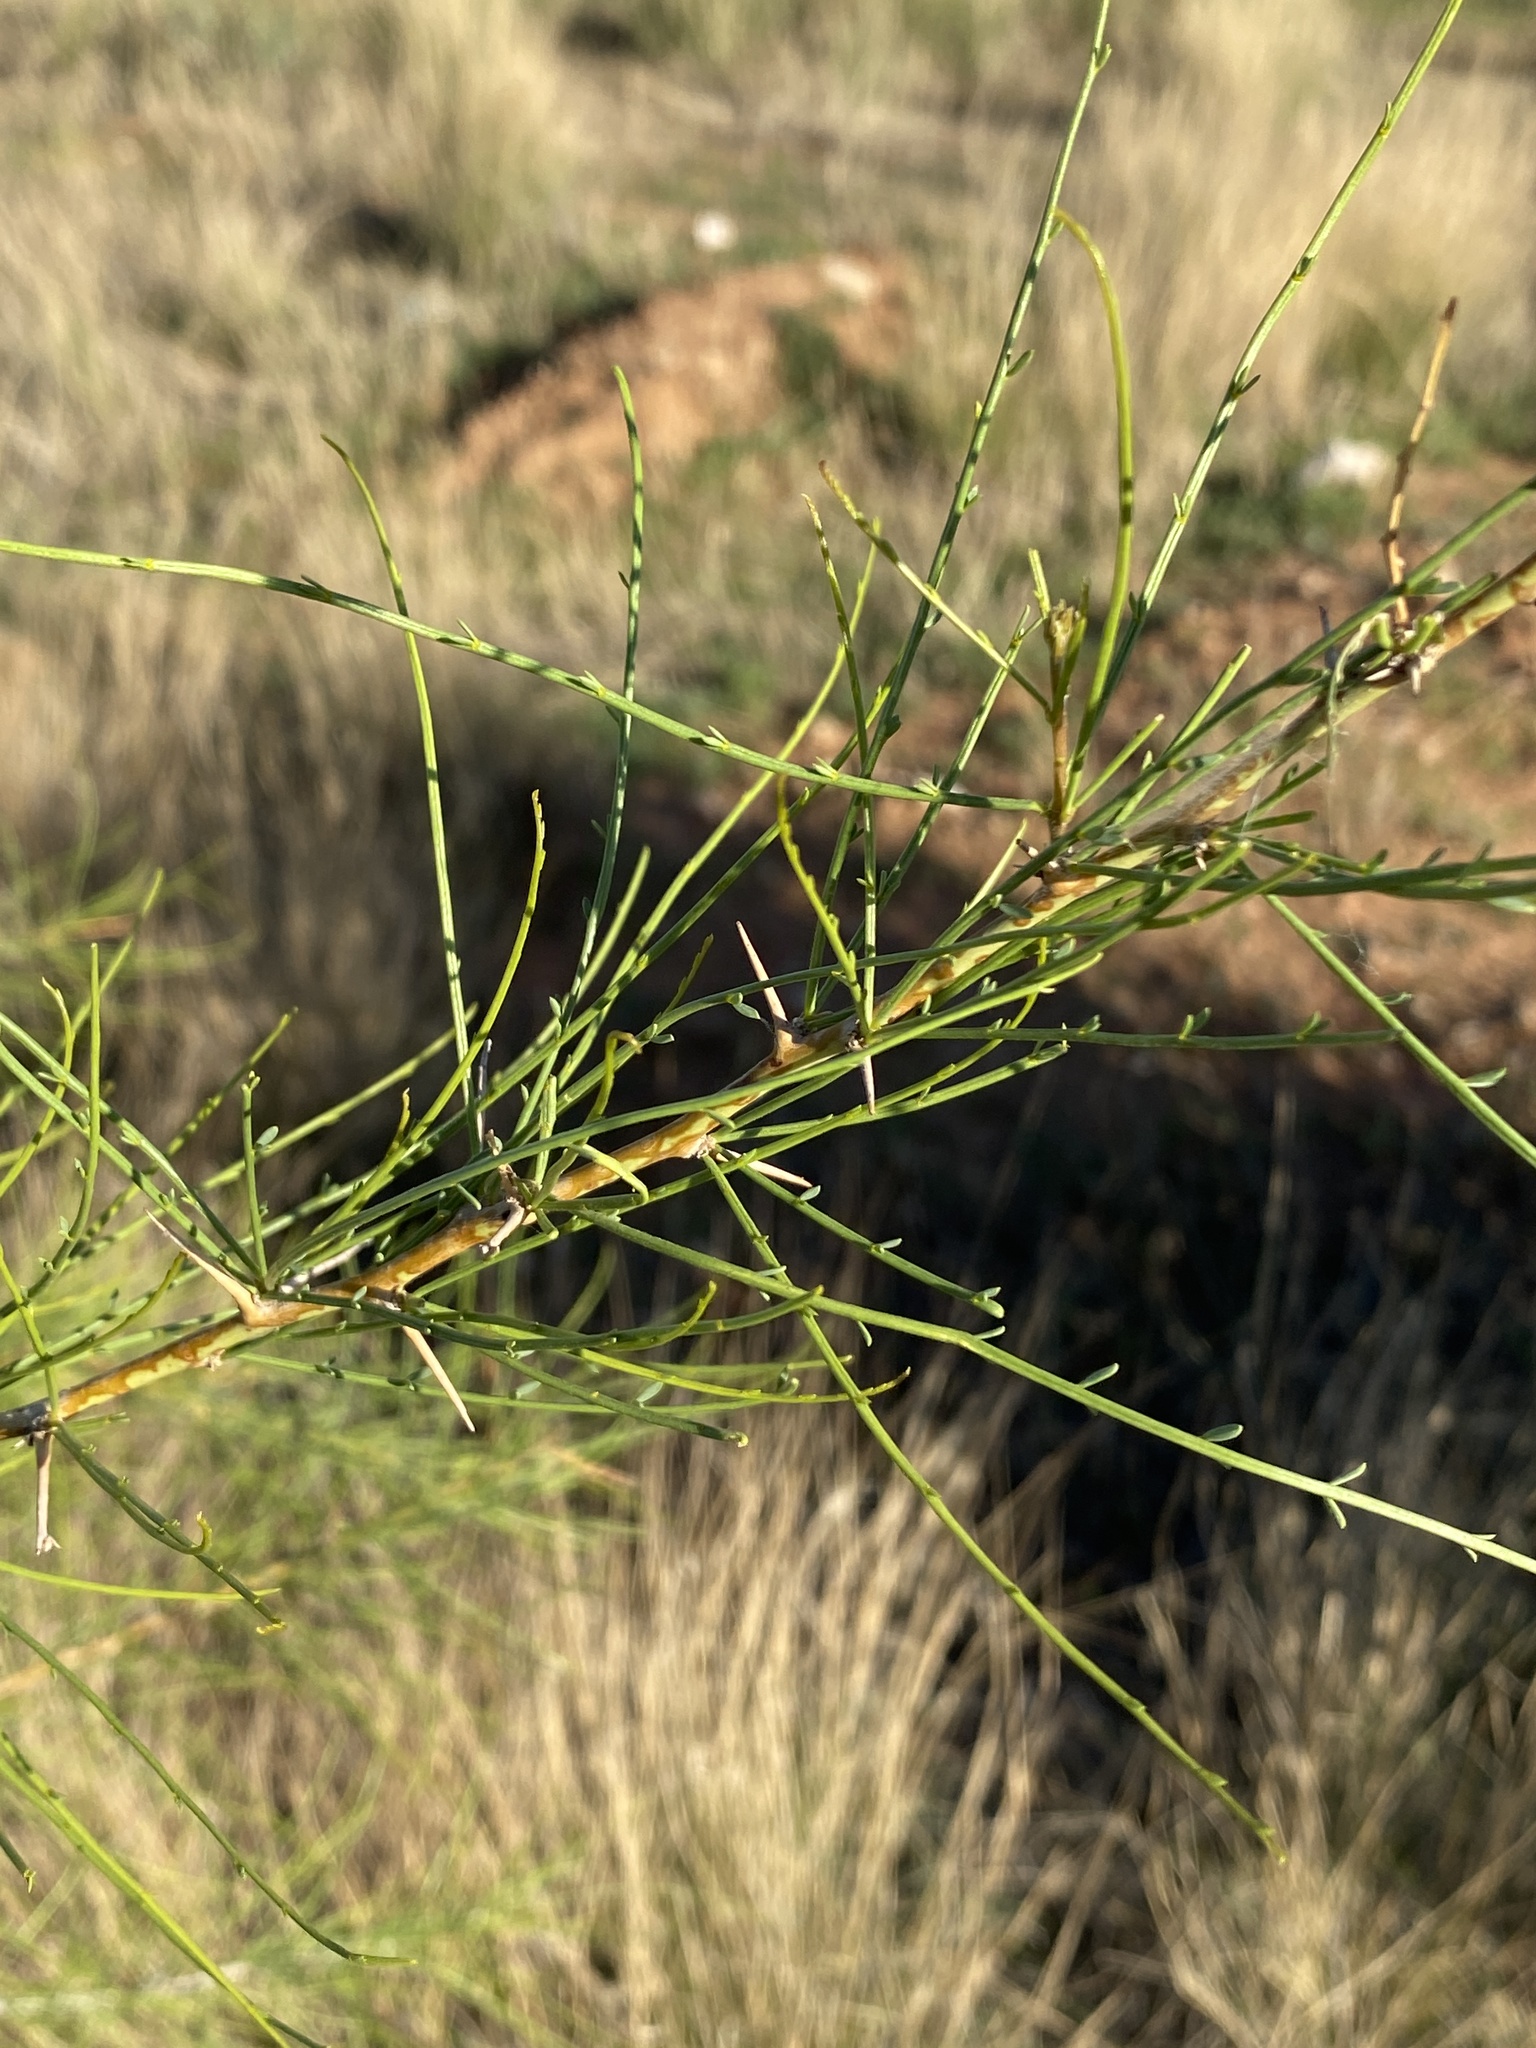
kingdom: Plantae
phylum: Tracheophyta
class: Magnoliopsida
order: Fabales
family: Fabaceae
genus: Parkinsonia
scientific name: Parkinsonia africana
